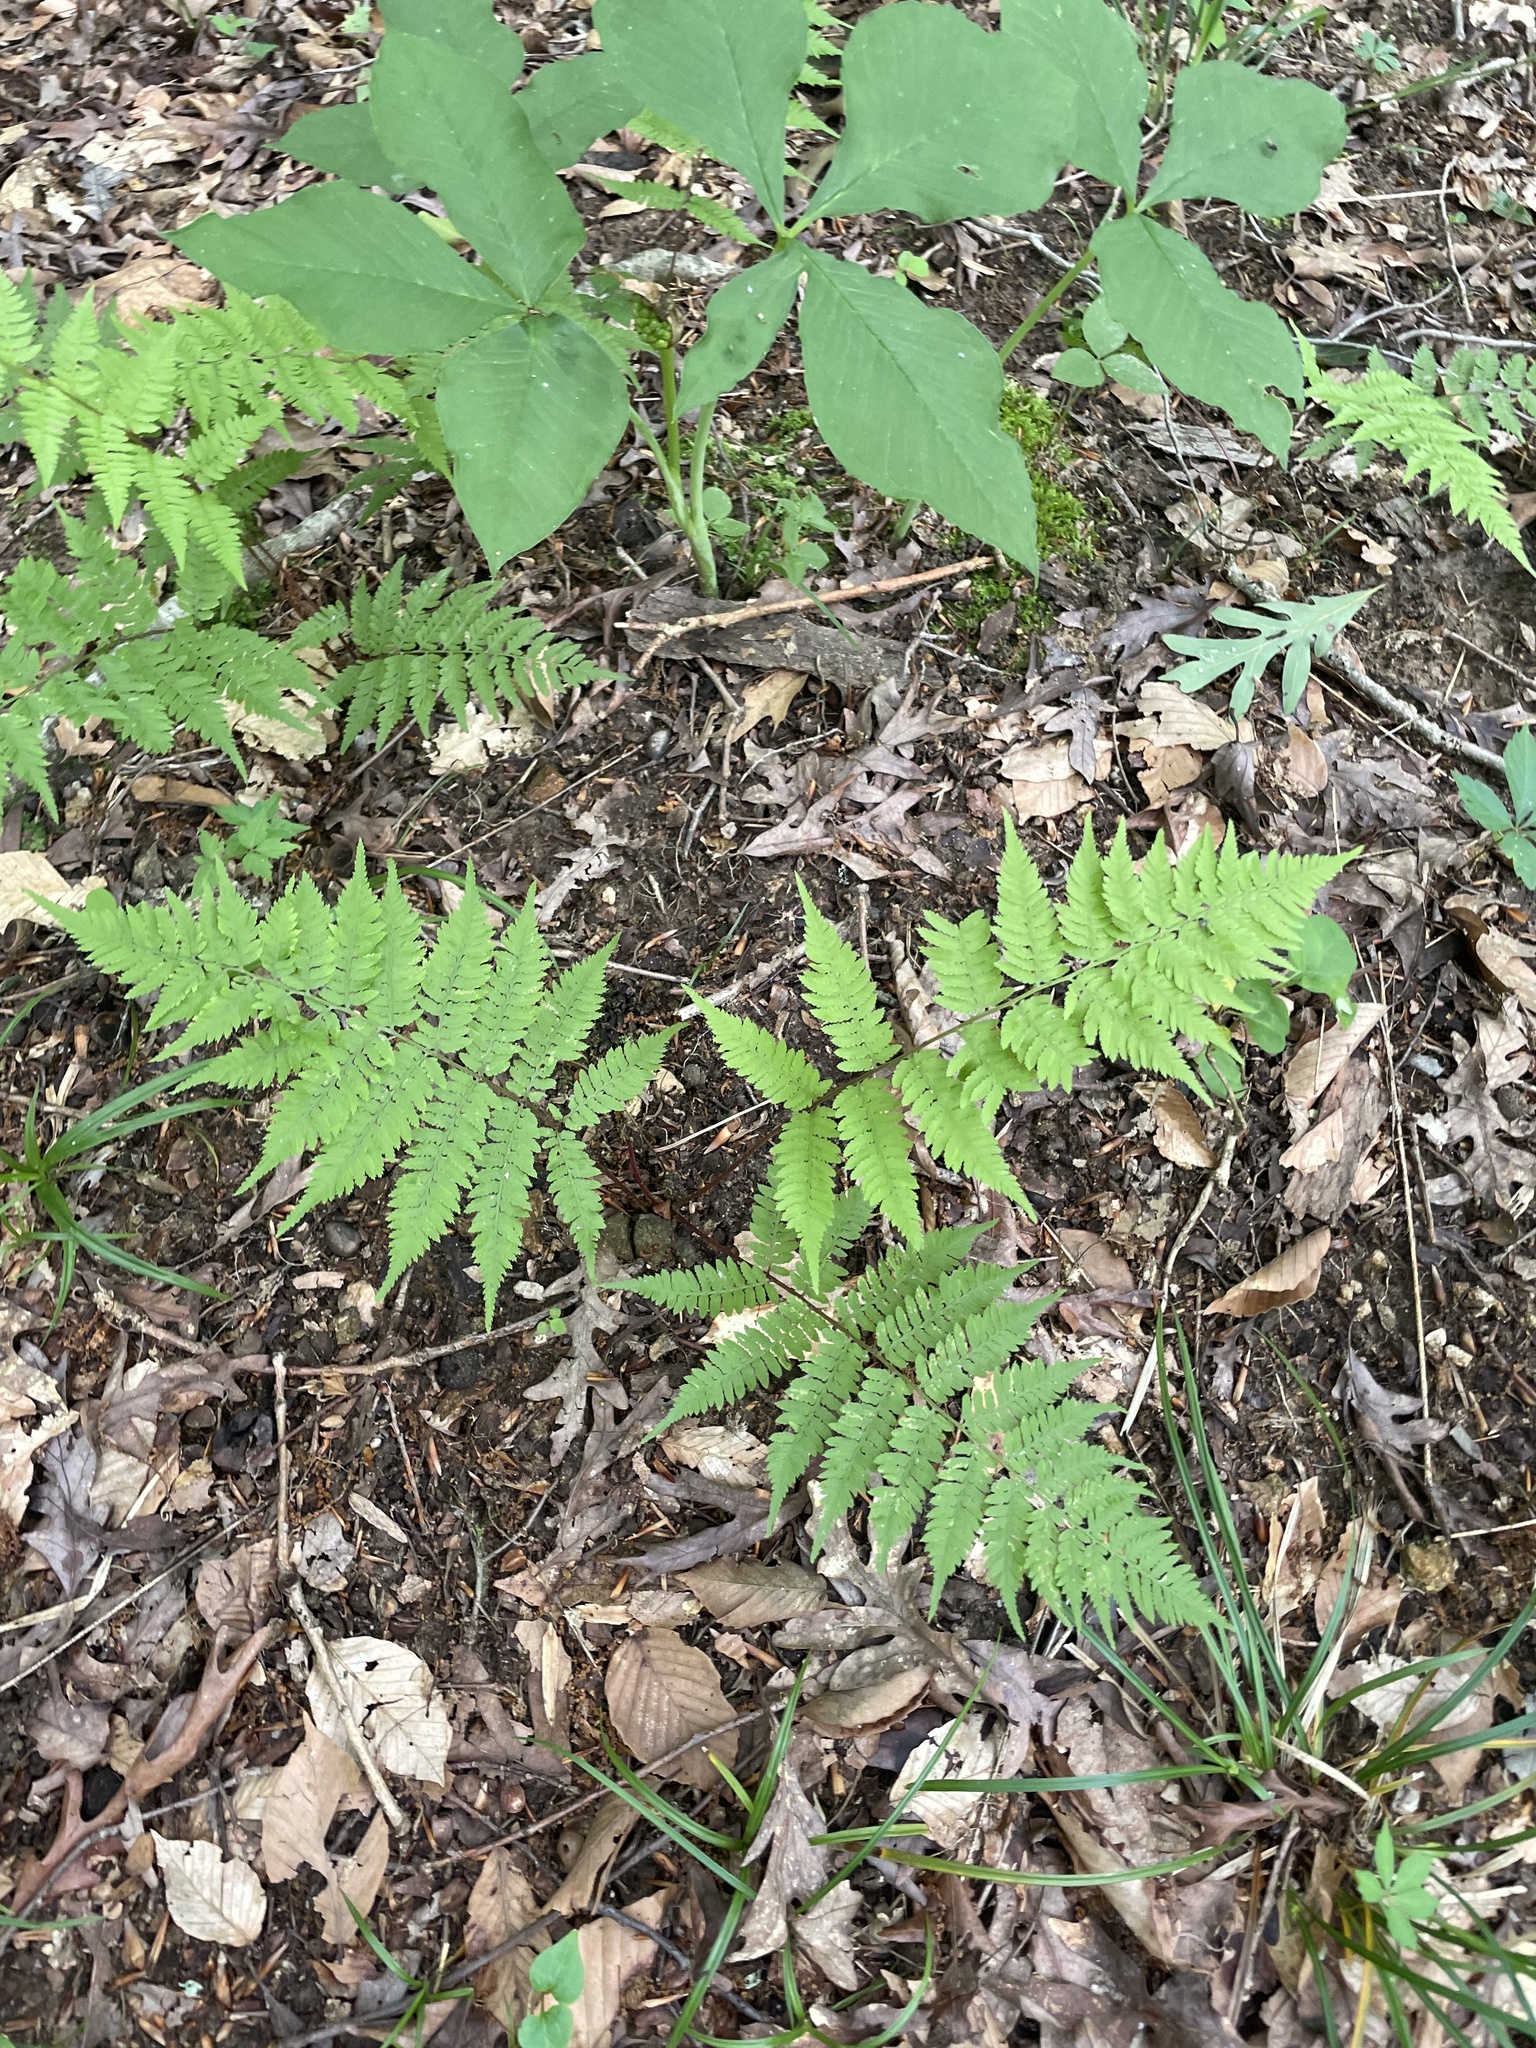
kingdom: Plantae
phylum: Tracheophyta
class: Polypodiopsida
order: Polypodiales
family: Athyriaceae
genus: Athyrium
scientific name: Athyrium asplenioides
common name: Southern lady fern
